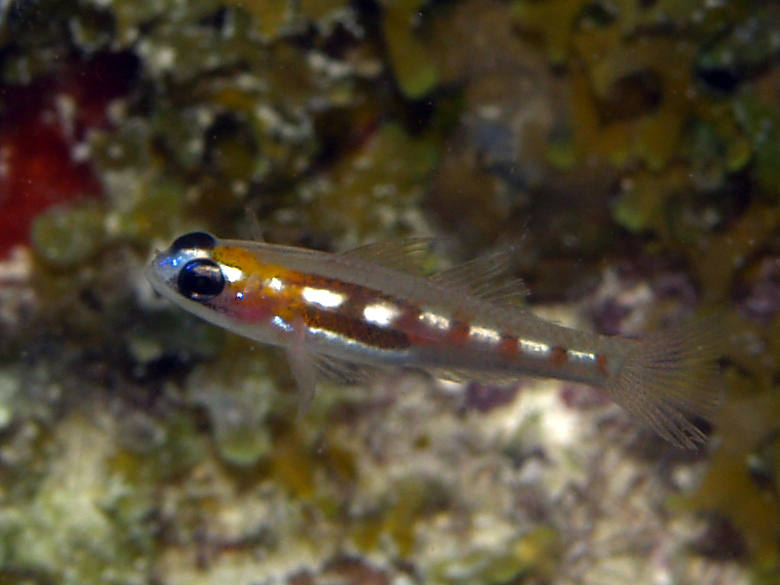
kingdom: Animalia
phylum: Chordata
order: Perciformes
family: Gobiidae
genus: Coryphopterus
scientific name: Coryphopterus personatus
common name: Masked goby
